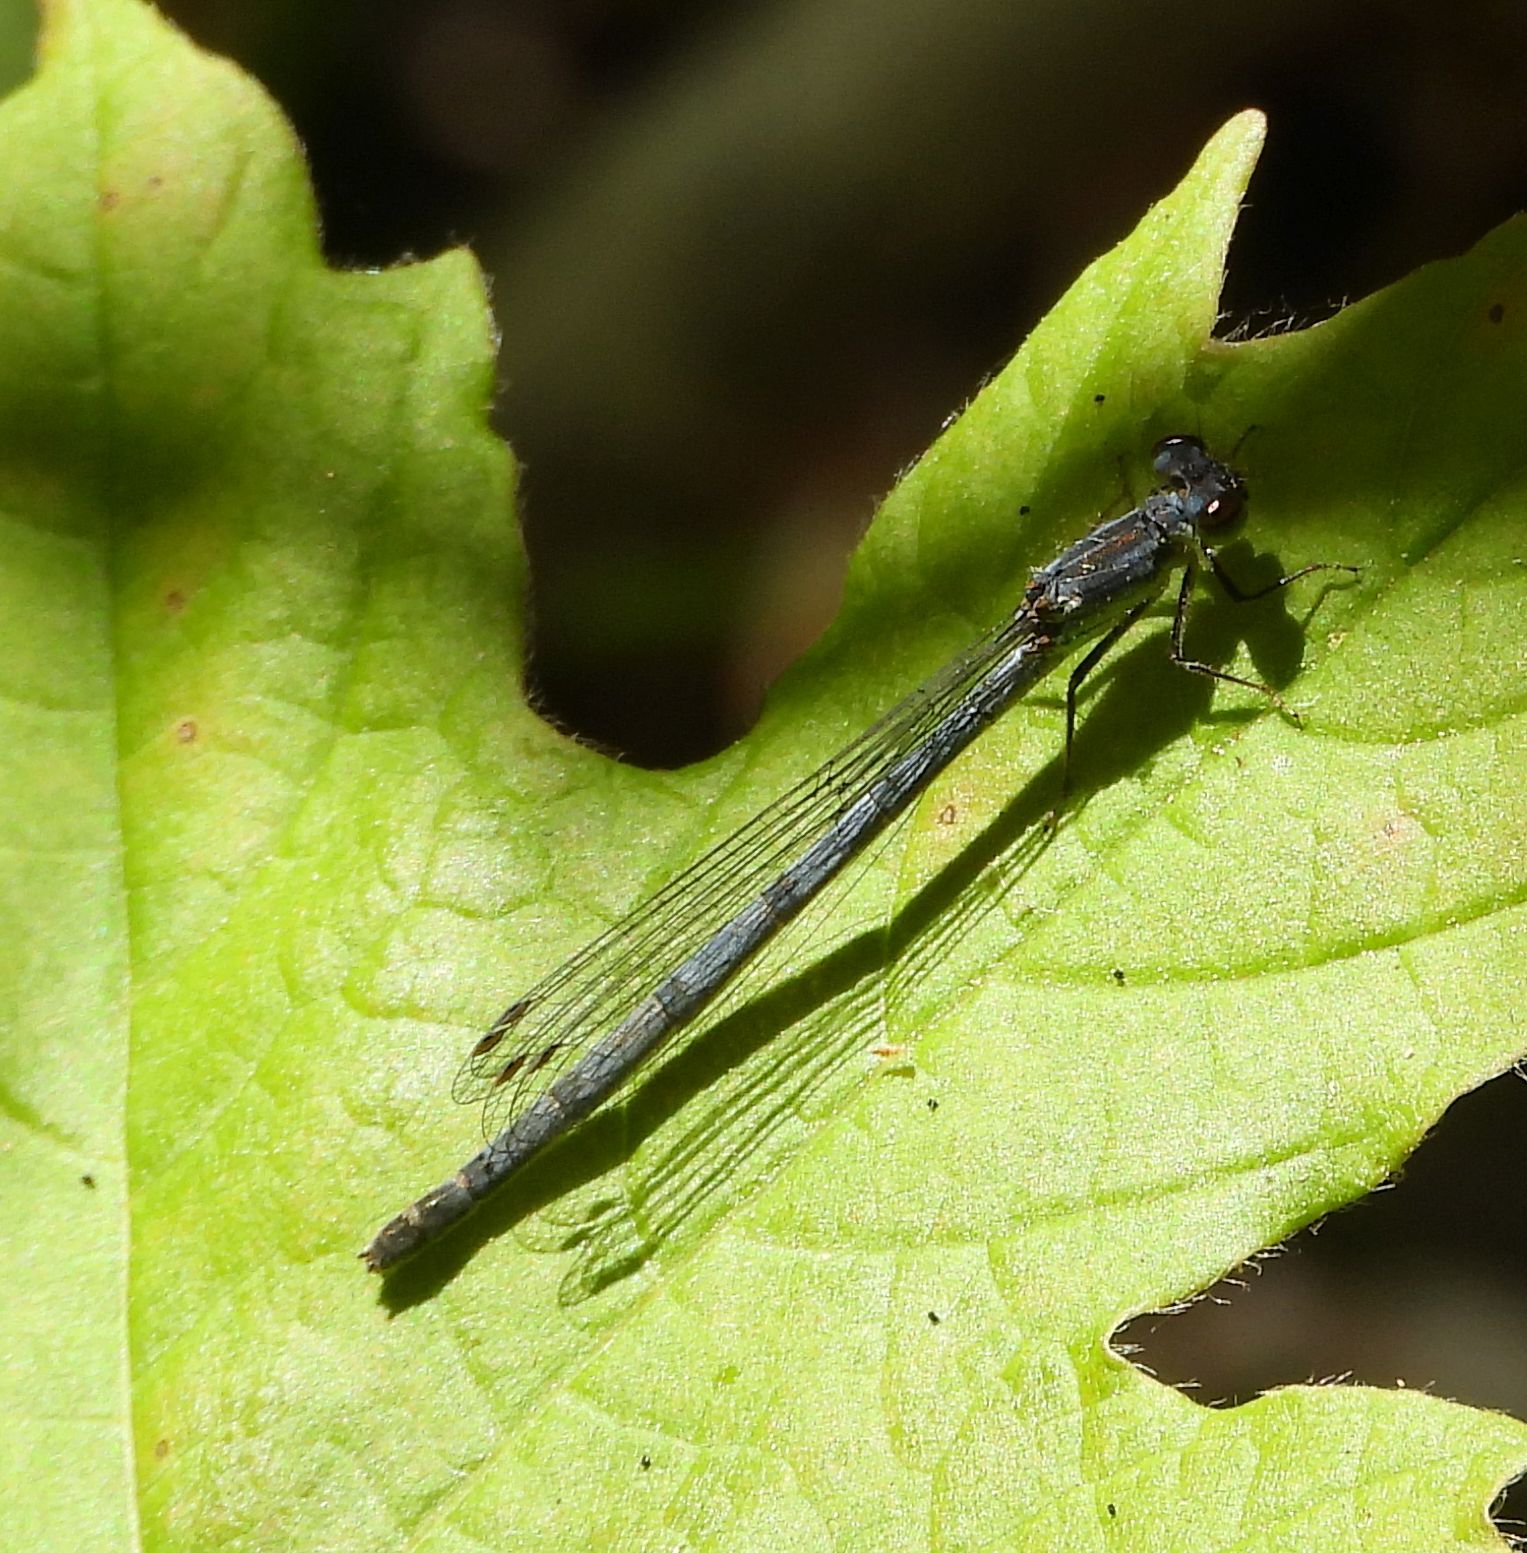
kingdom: Animalia
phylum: Arthropoda
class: Insecta
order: Odonata
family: Coenagrionidae
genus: Ischnura
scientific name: Ischnura posita
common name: Fragile forktail
